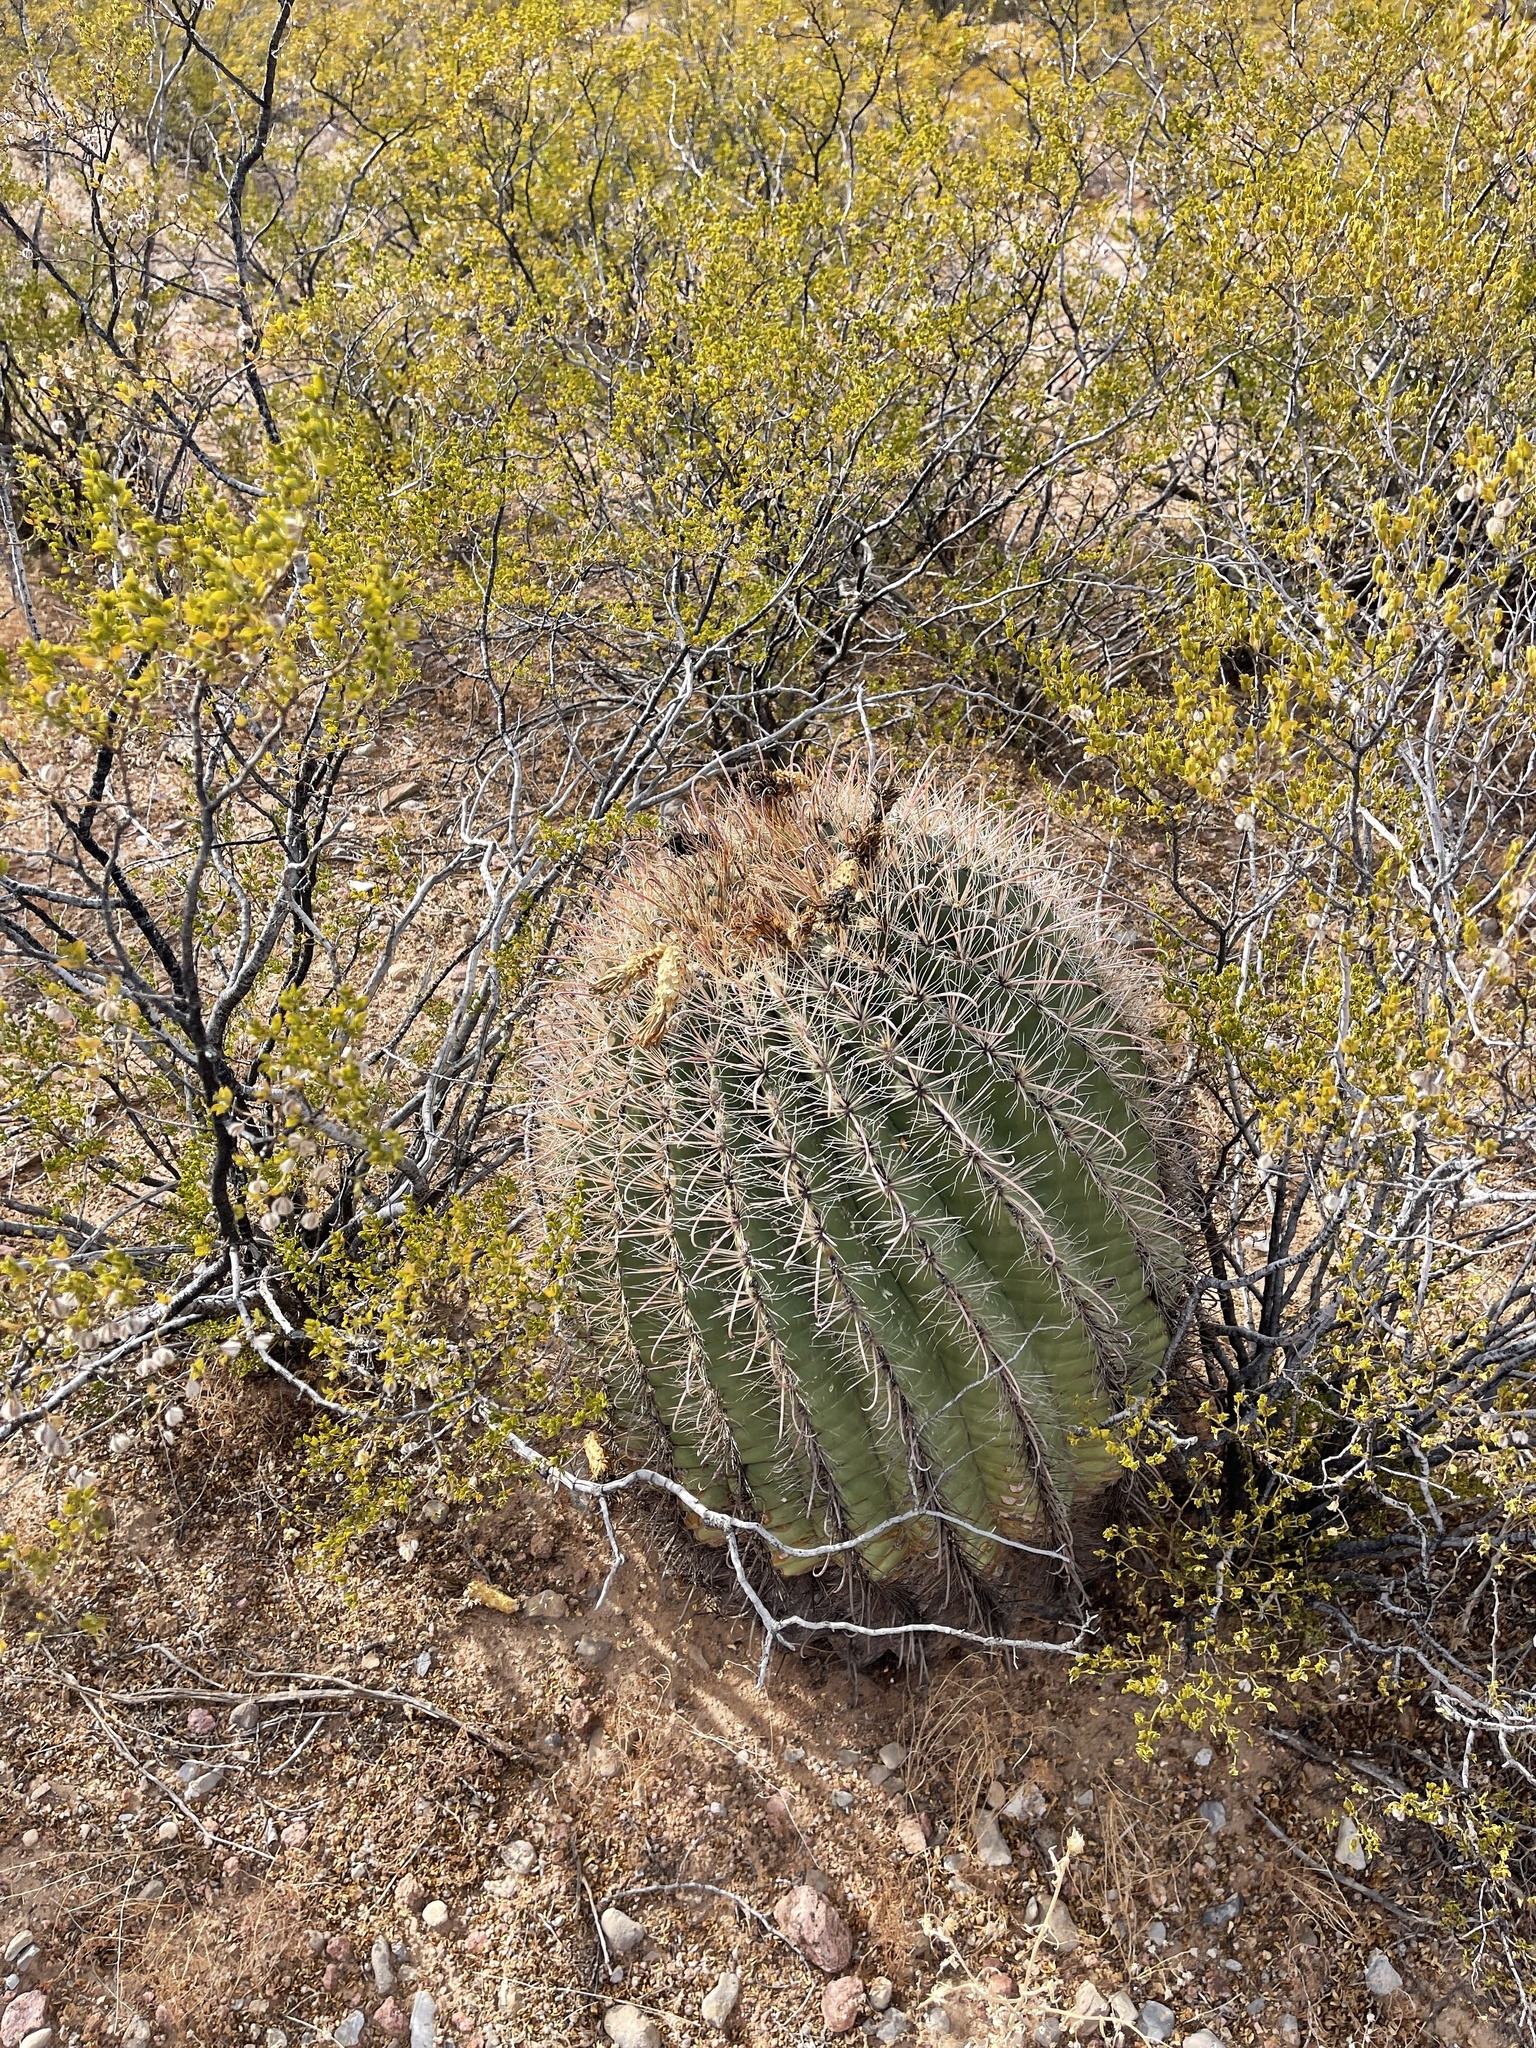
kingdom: Plantae
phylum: Tracheophyta
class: Magnoliopsida
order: Caryophyllales
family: Cactaceae
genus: Ferocactus
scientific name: Ferocactus wislizeni
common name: Candy barrel cactus
